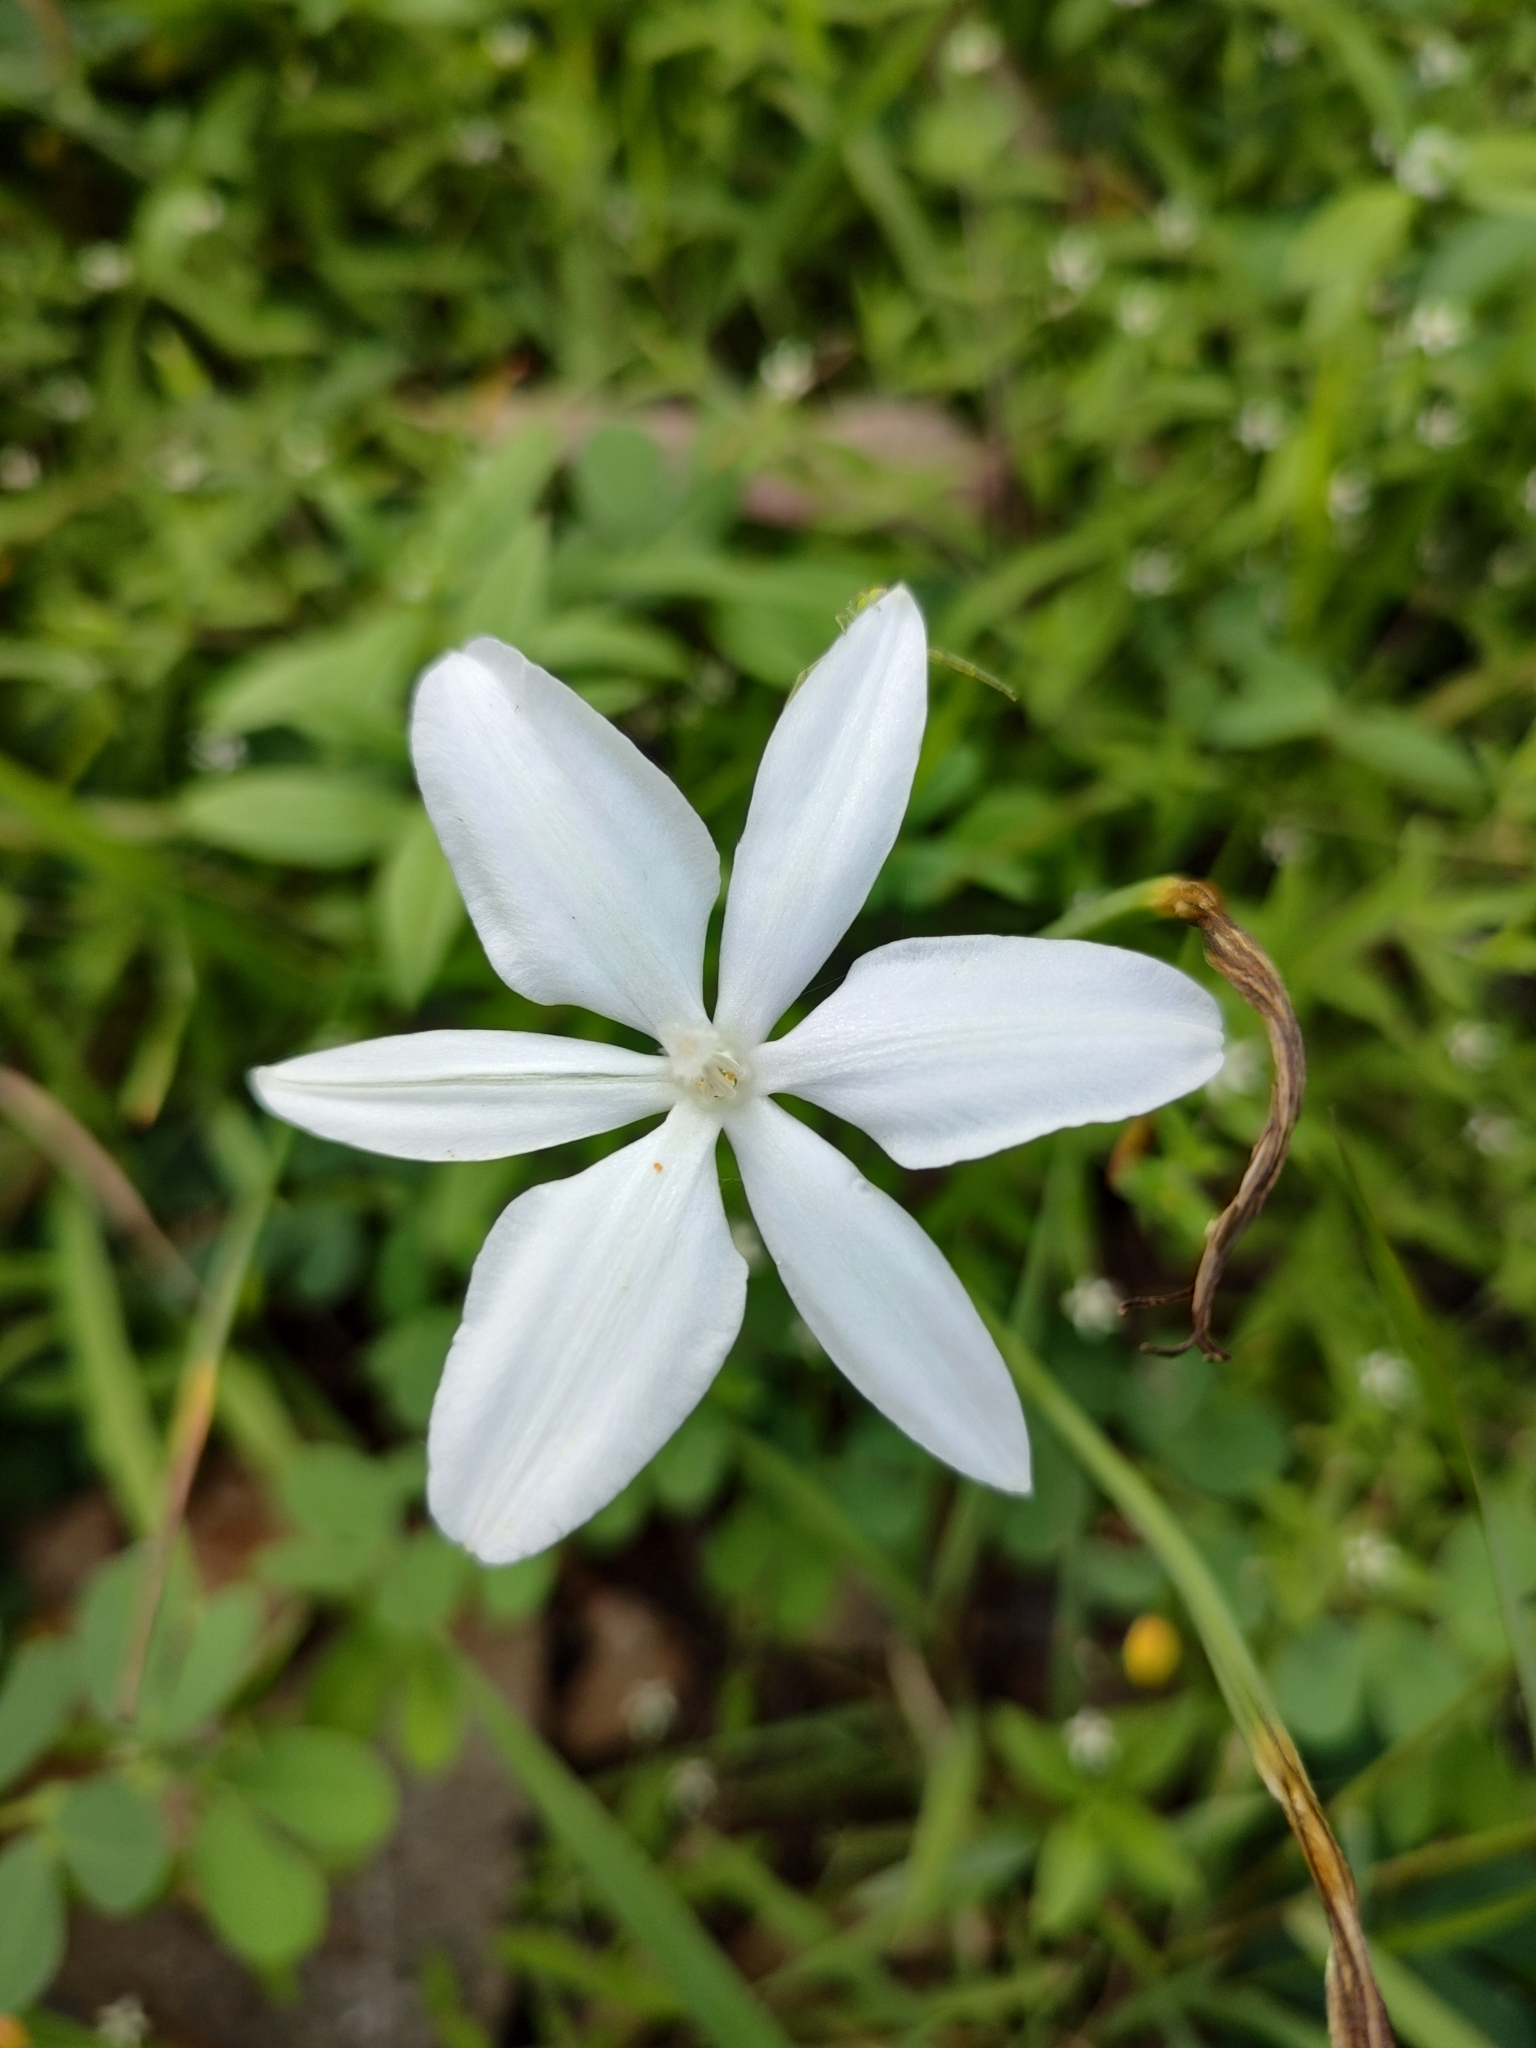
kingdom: Plantae
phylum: Tracheophyta
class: Liliopsida
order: Asparagales
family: Asparagaceae
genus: Milla
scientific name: Milla biflora
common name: Mexican-star
